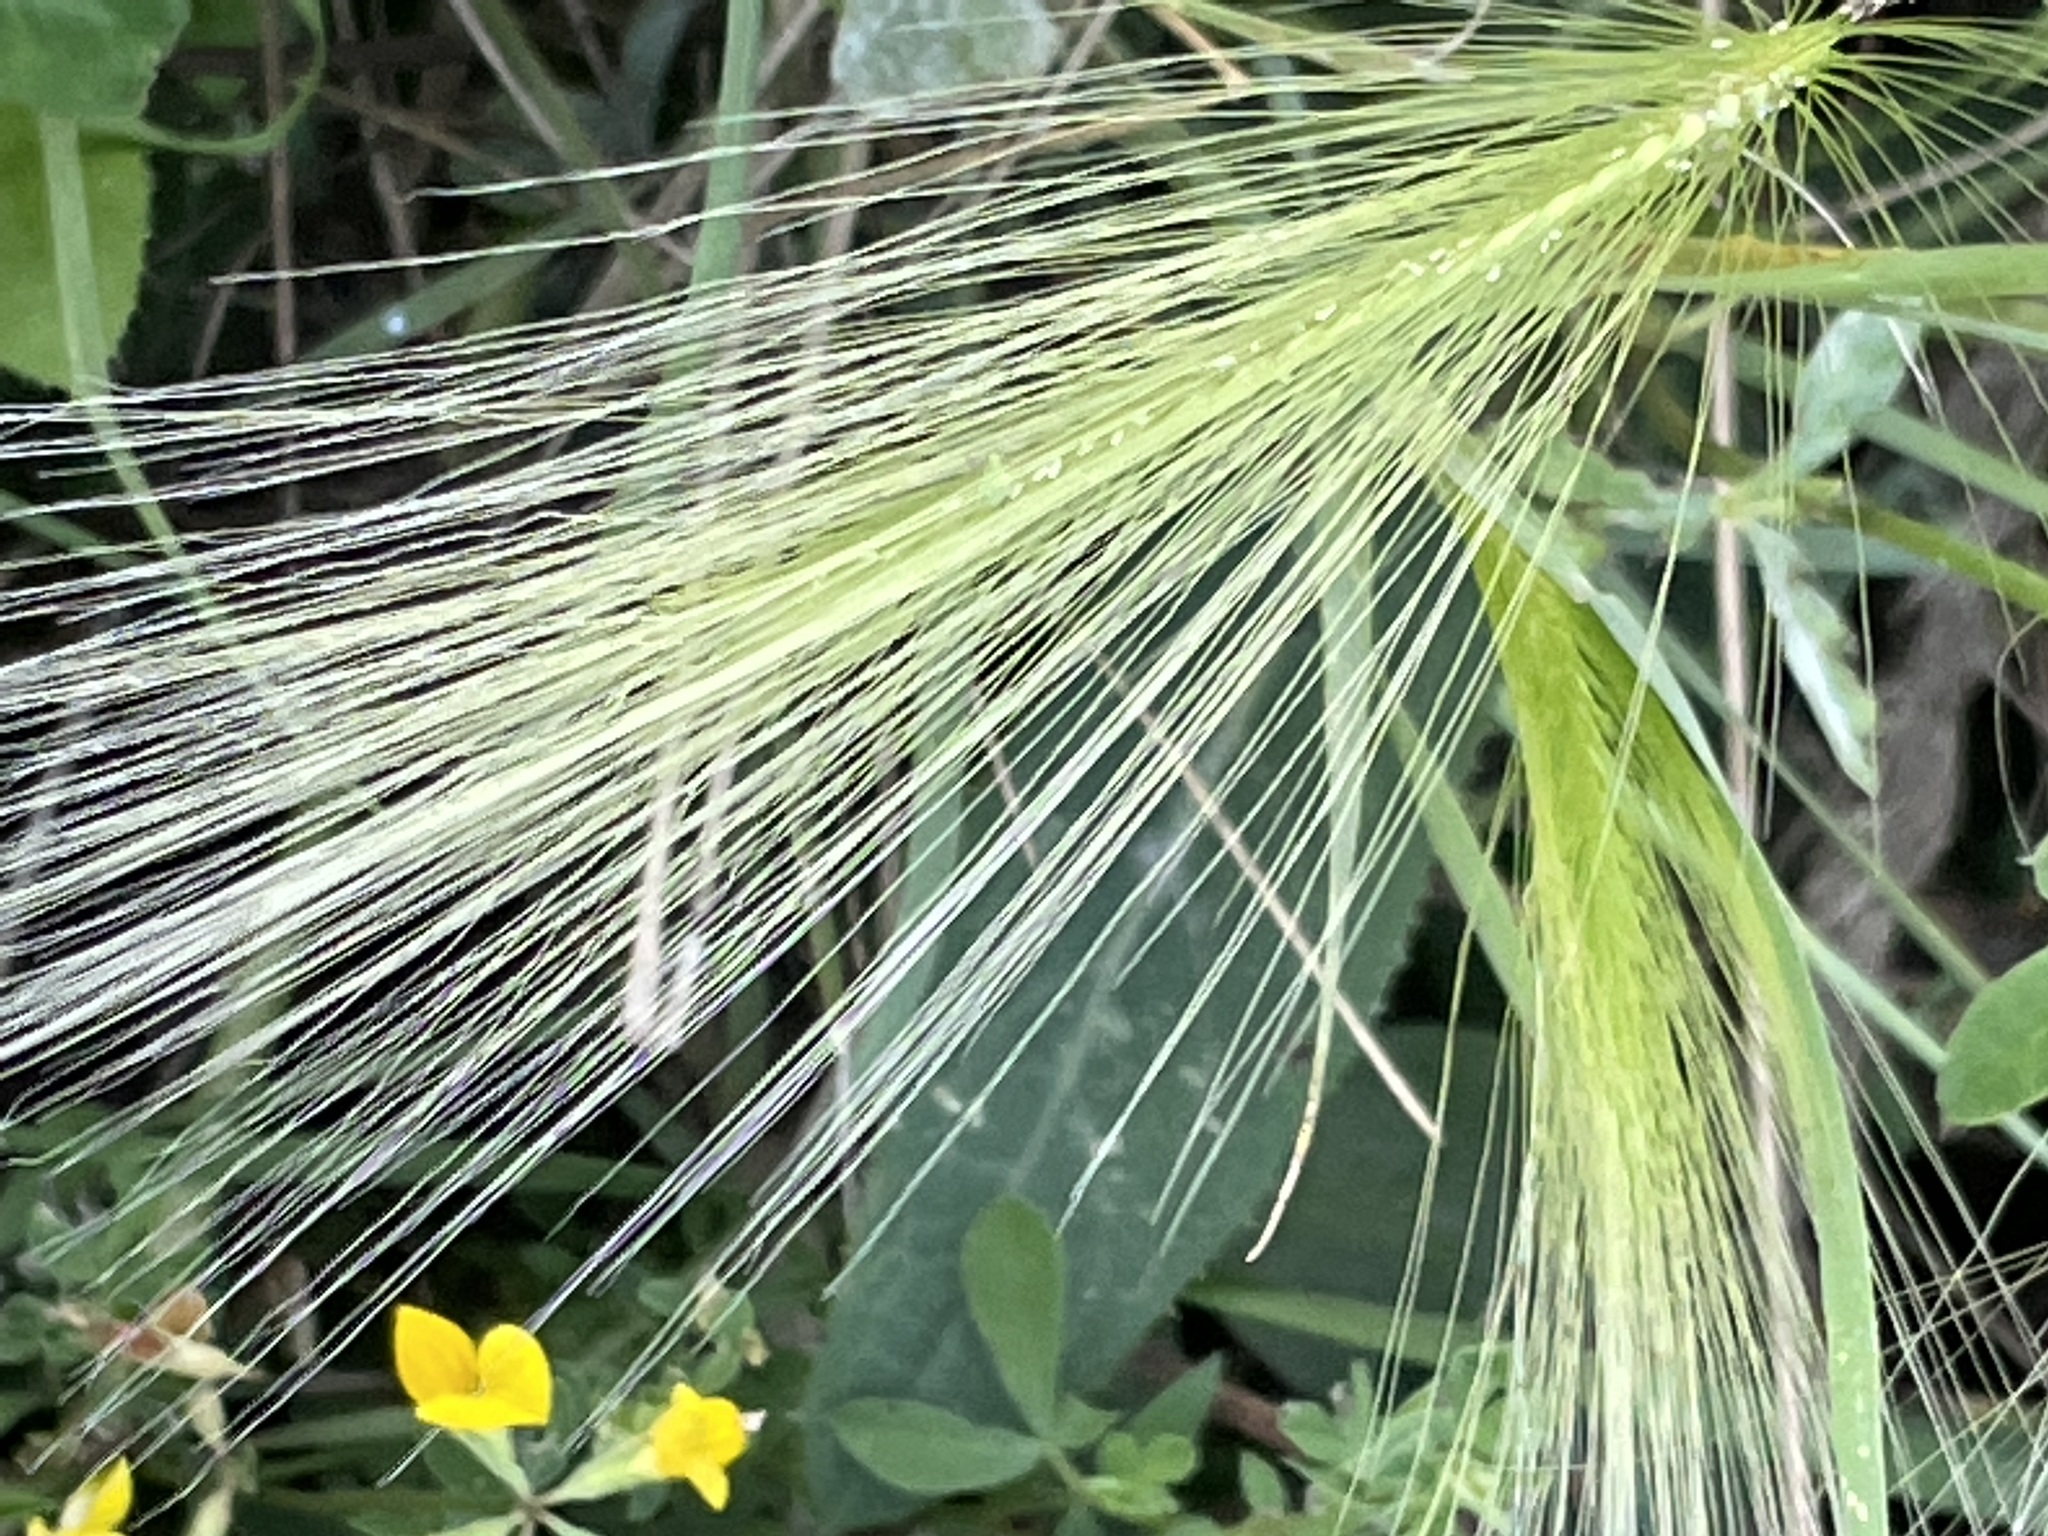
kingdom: Plantae
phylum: Tracheophyta
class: Liliopsida
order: Poales
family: Poaceae
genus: Hordeum
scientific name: Hordeum jubatum
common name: Foxtail barley
